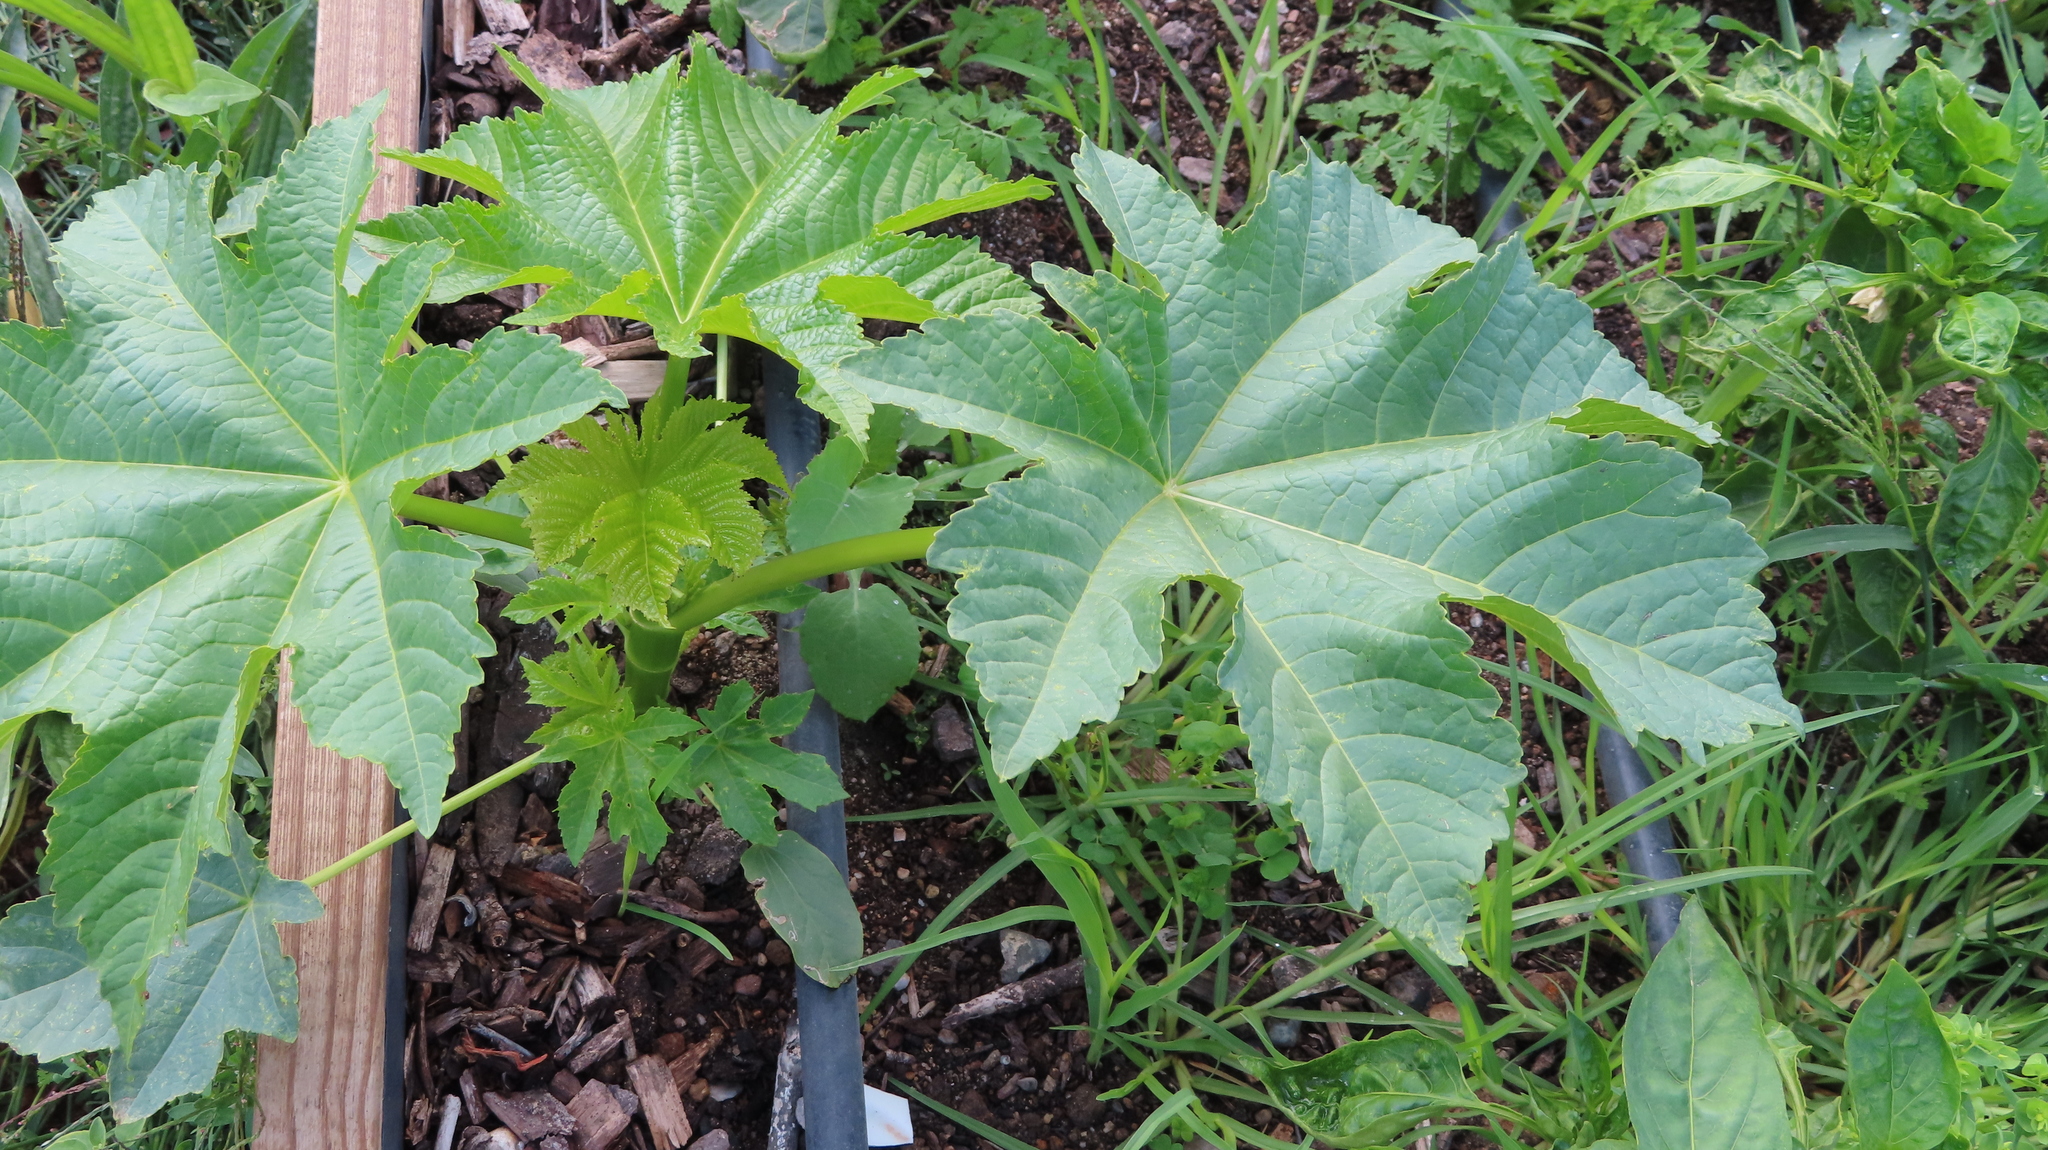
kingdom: Plantae
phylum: Tracheophyta
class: Magnoliopsida
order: Malpighiales
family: Euphorbiaceae
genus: Ricinus
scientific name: Ricinus communis
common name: Castor-oil-plant
